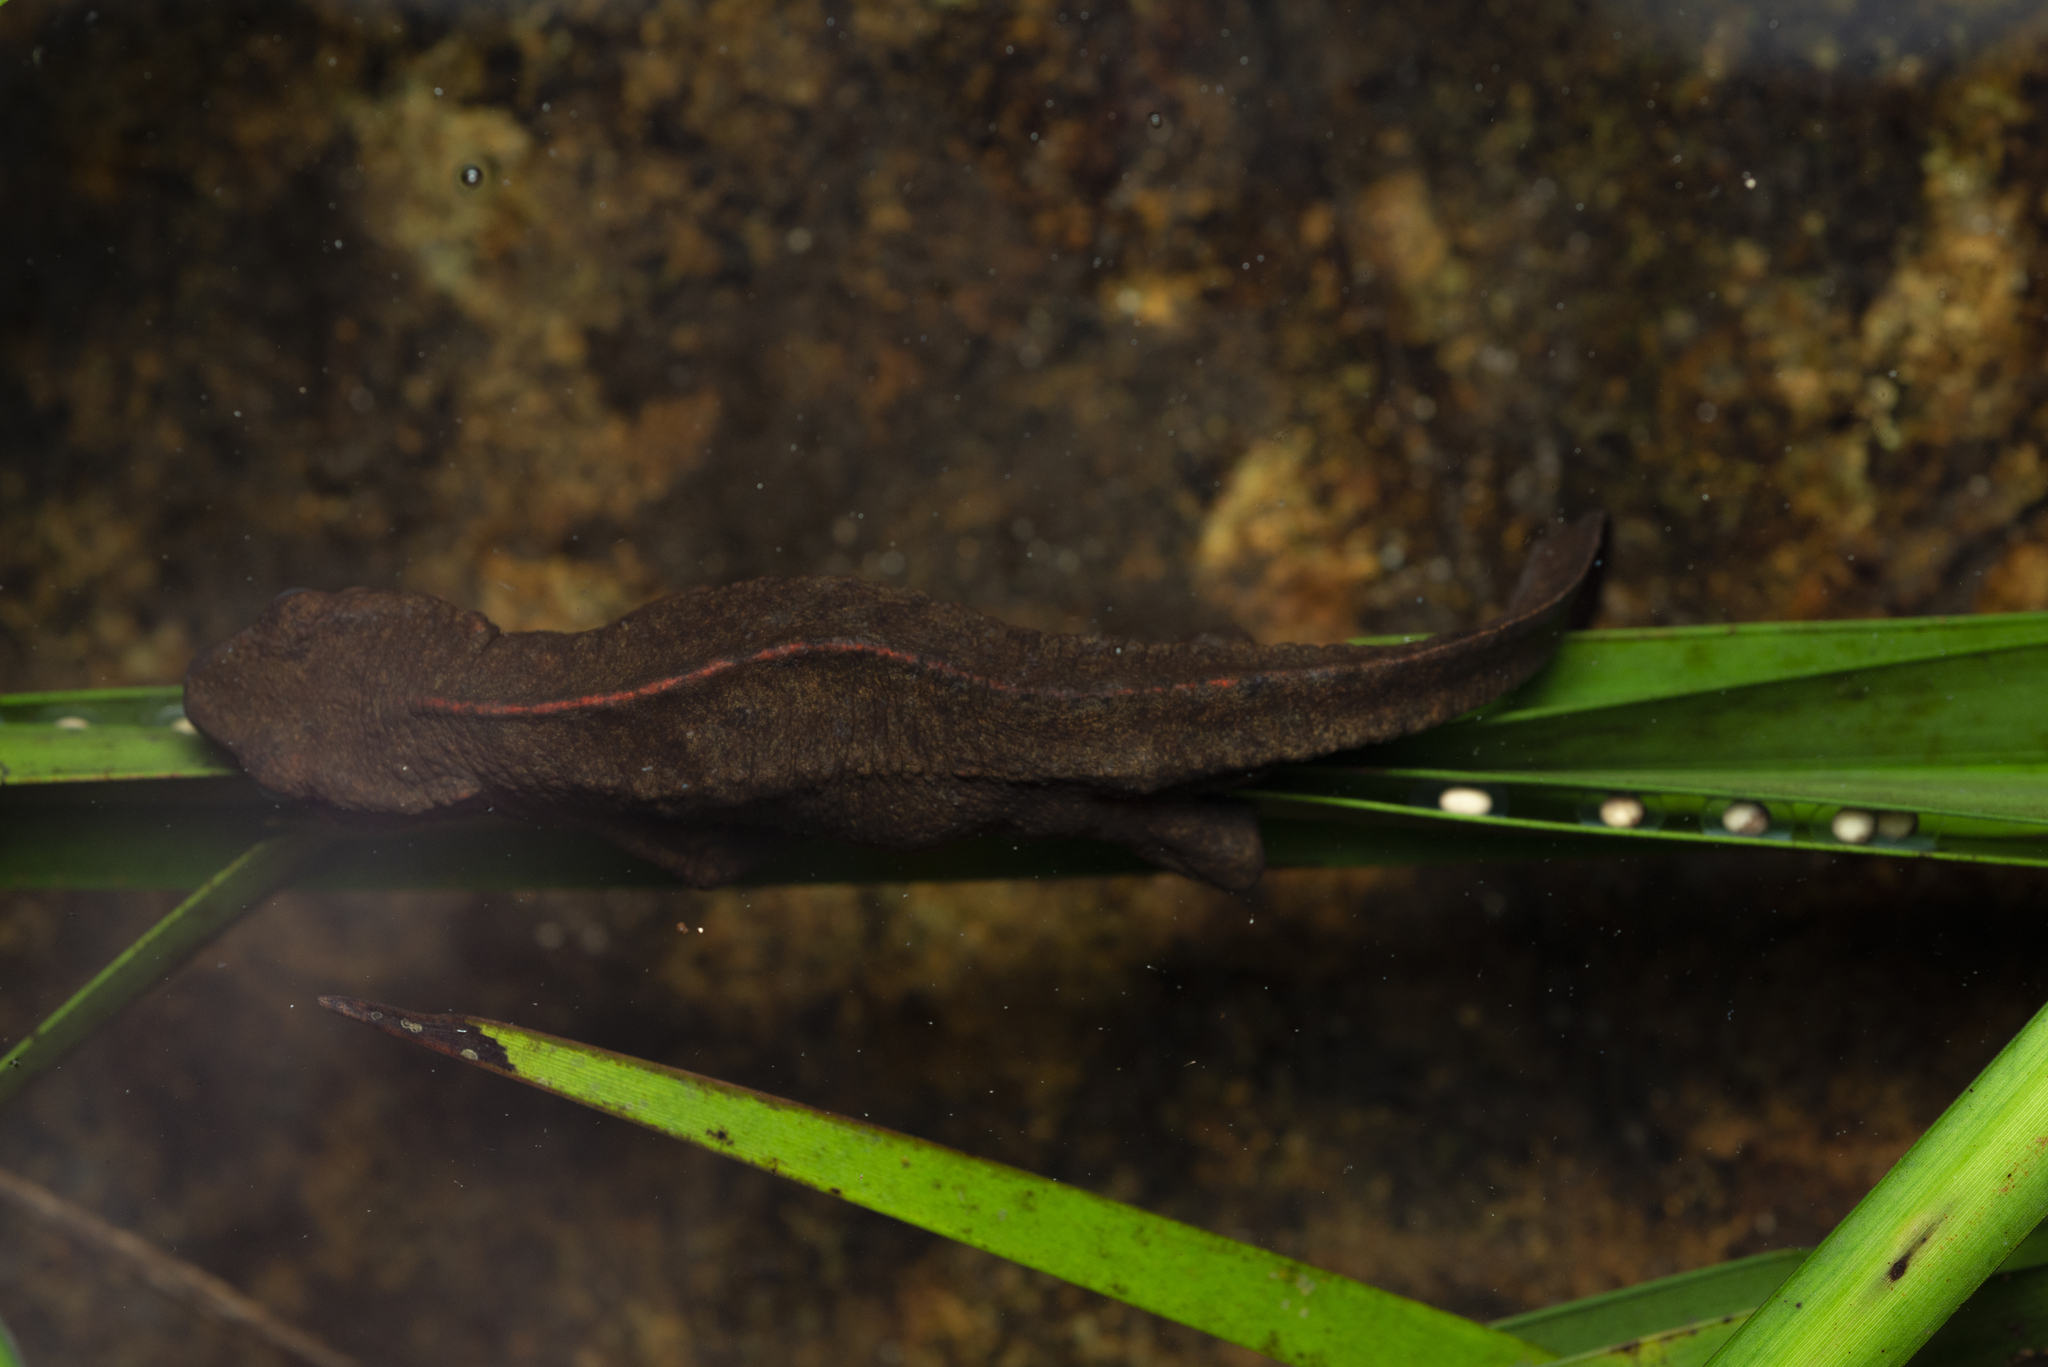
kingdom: Animalia
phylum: Chordata
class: Amphibia
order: Caudata
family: Salamandridae
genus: Paramesotriton
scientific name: Paramesotriton hongkongensis
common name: Hong kong warty newt
